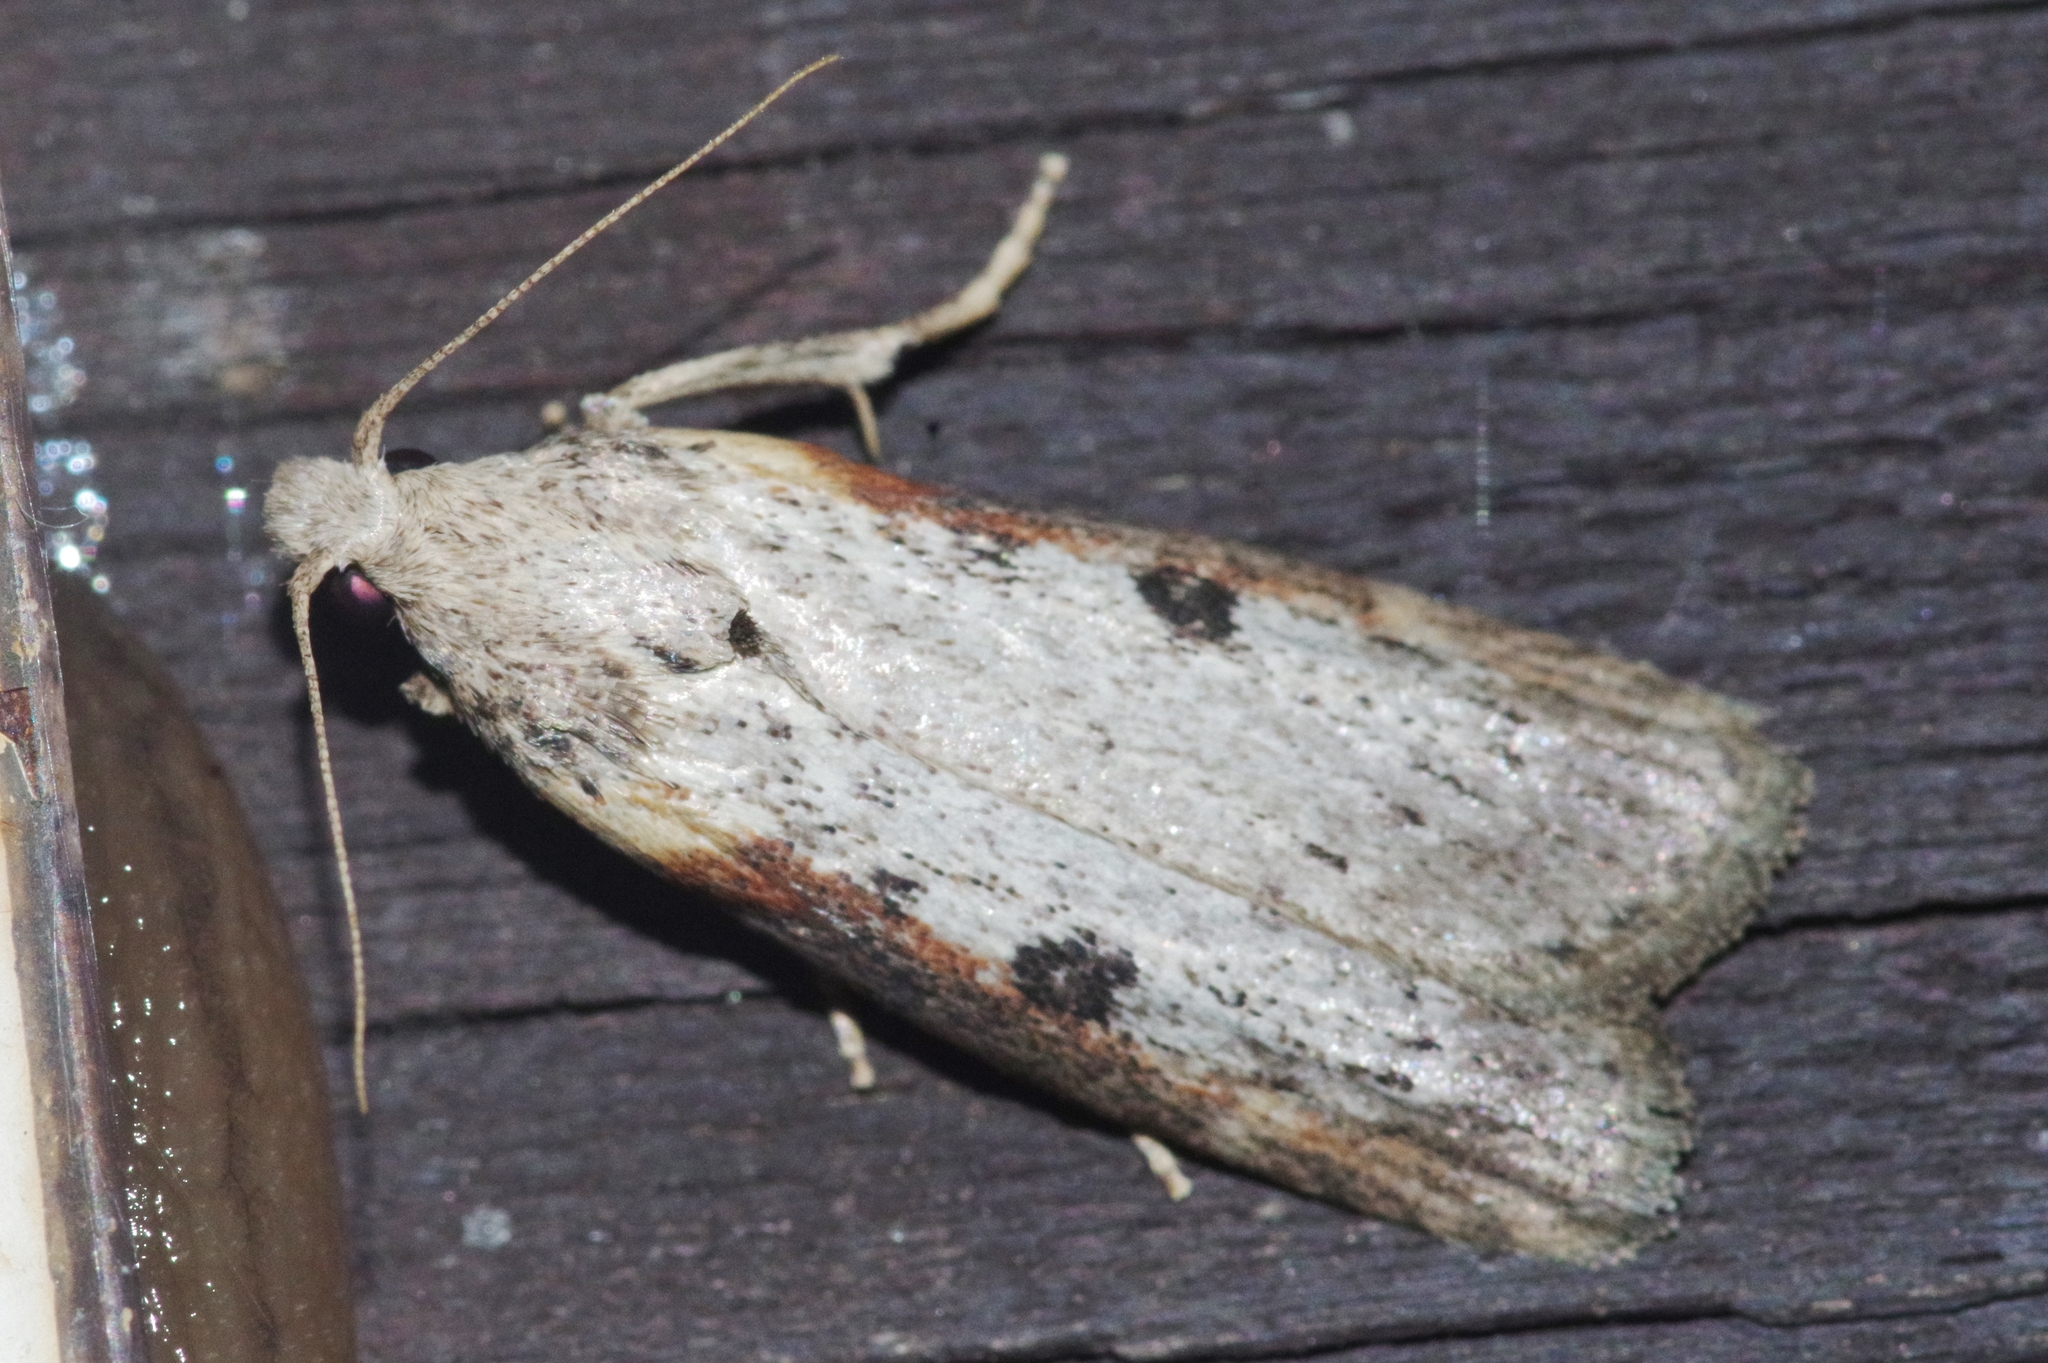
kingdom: Animalia
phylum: Arthropoda
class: Insecta
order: Lepidoptera
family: Pyralidae
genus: Lamoria
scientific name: Lamoria glaucalis
